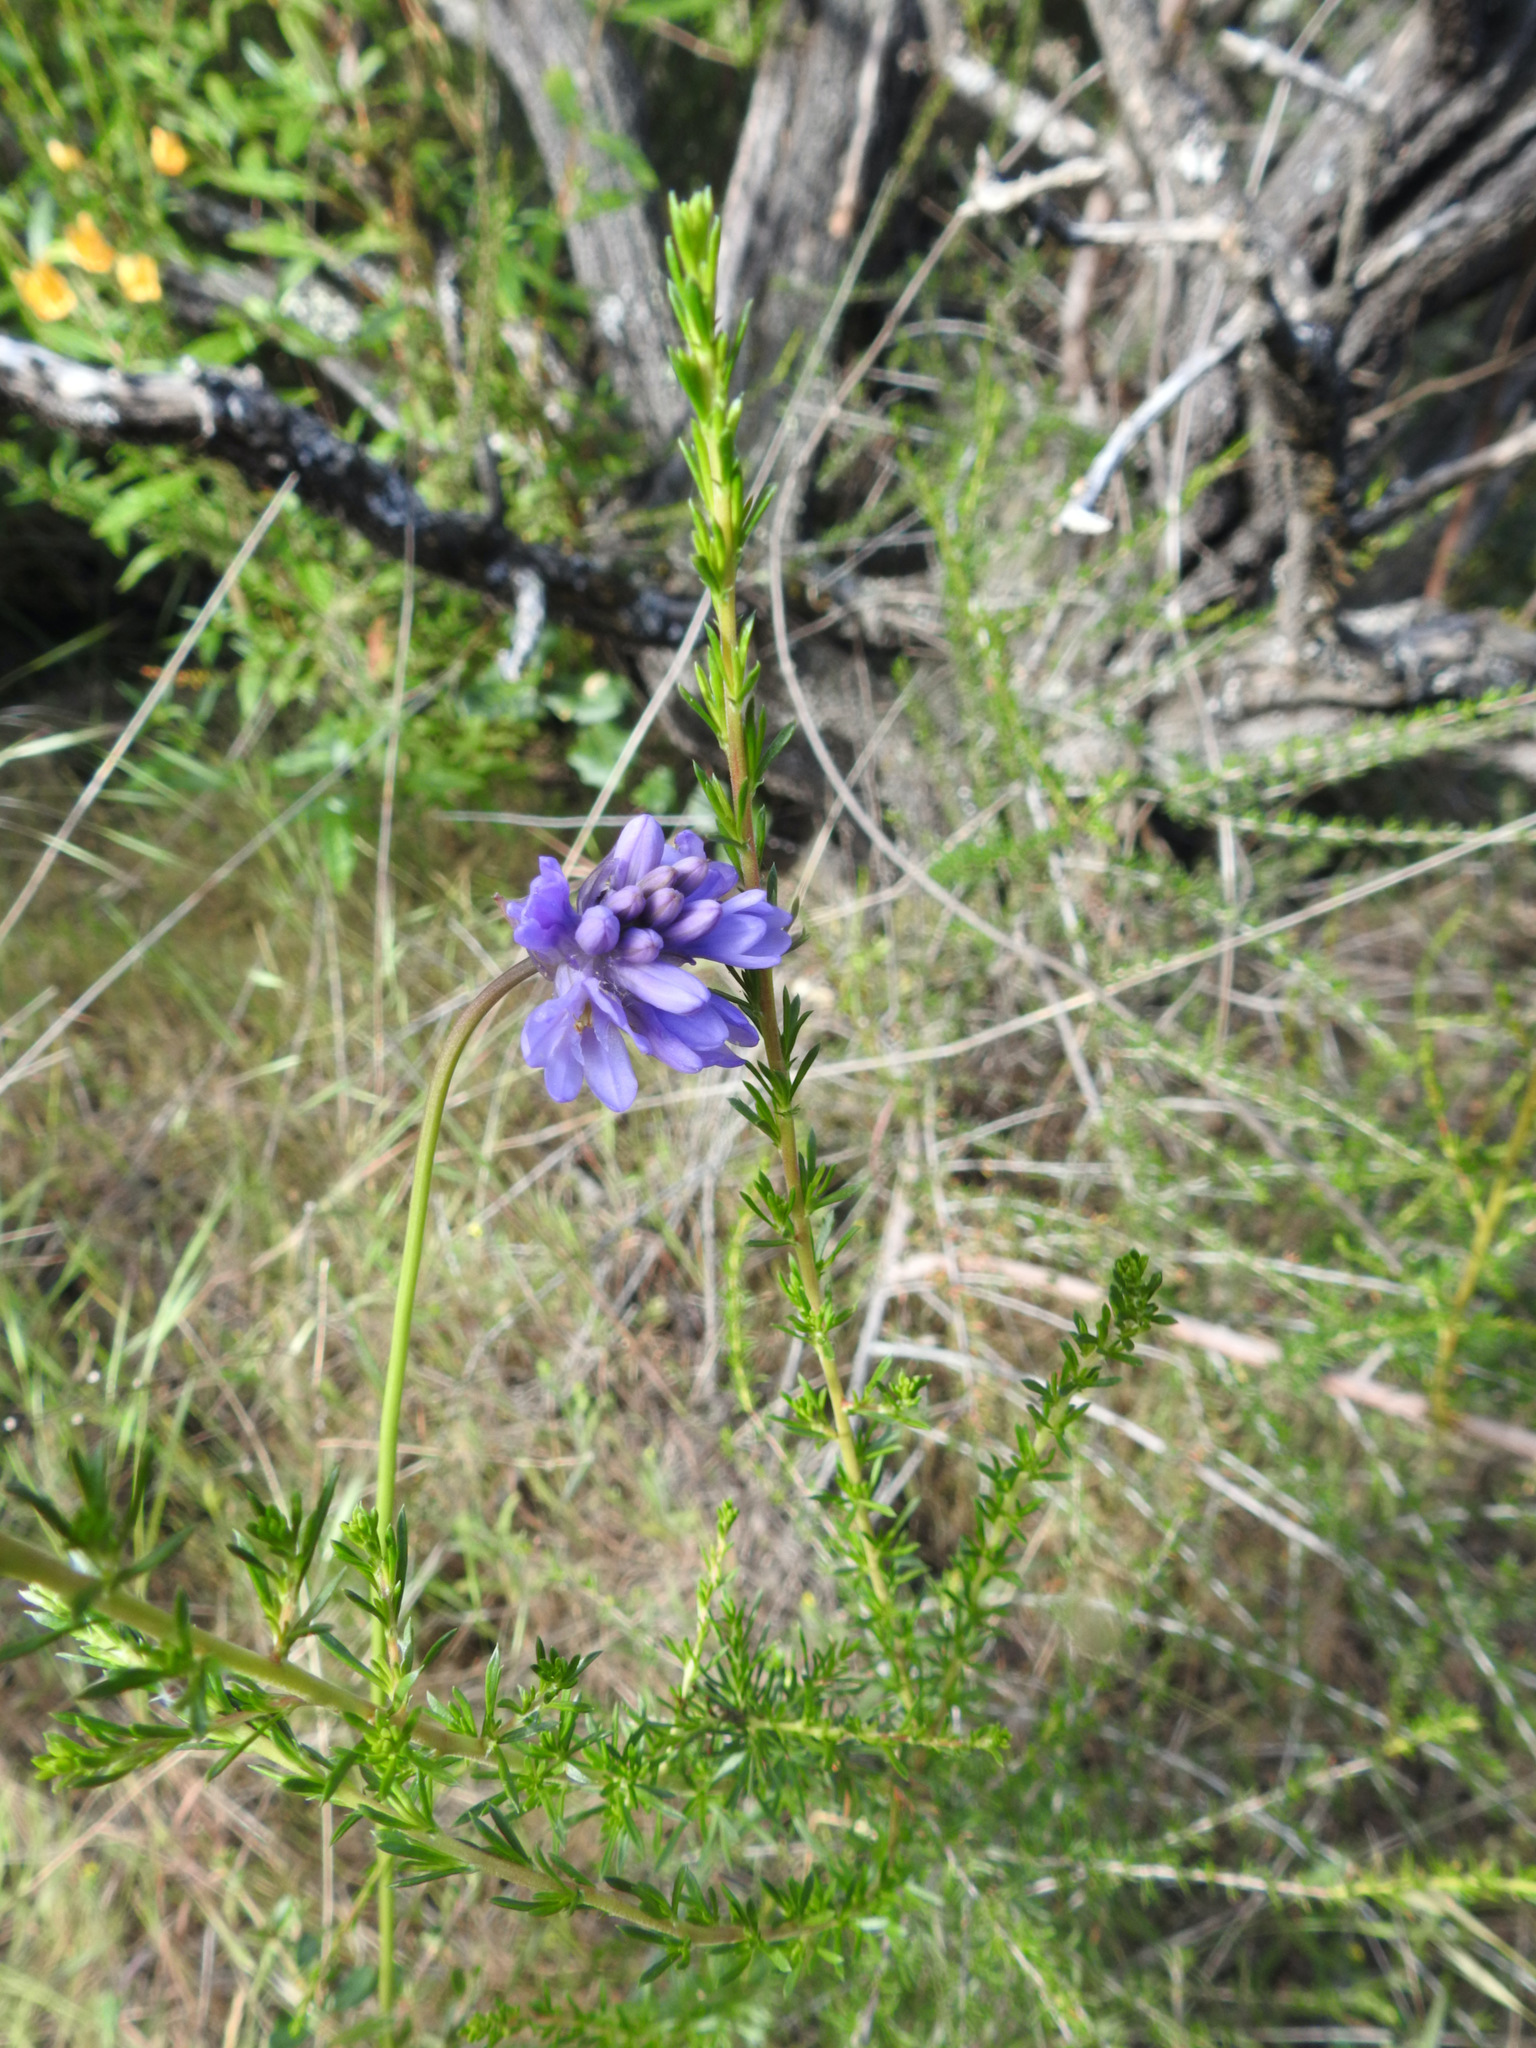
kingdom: Plantae
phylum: Tracheophyta
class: Liliopsida
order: Asparagales
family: Asparagaceae
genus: Dichelostemma
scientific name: Dichelostemma congestum
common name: Fork-tooth ookow
